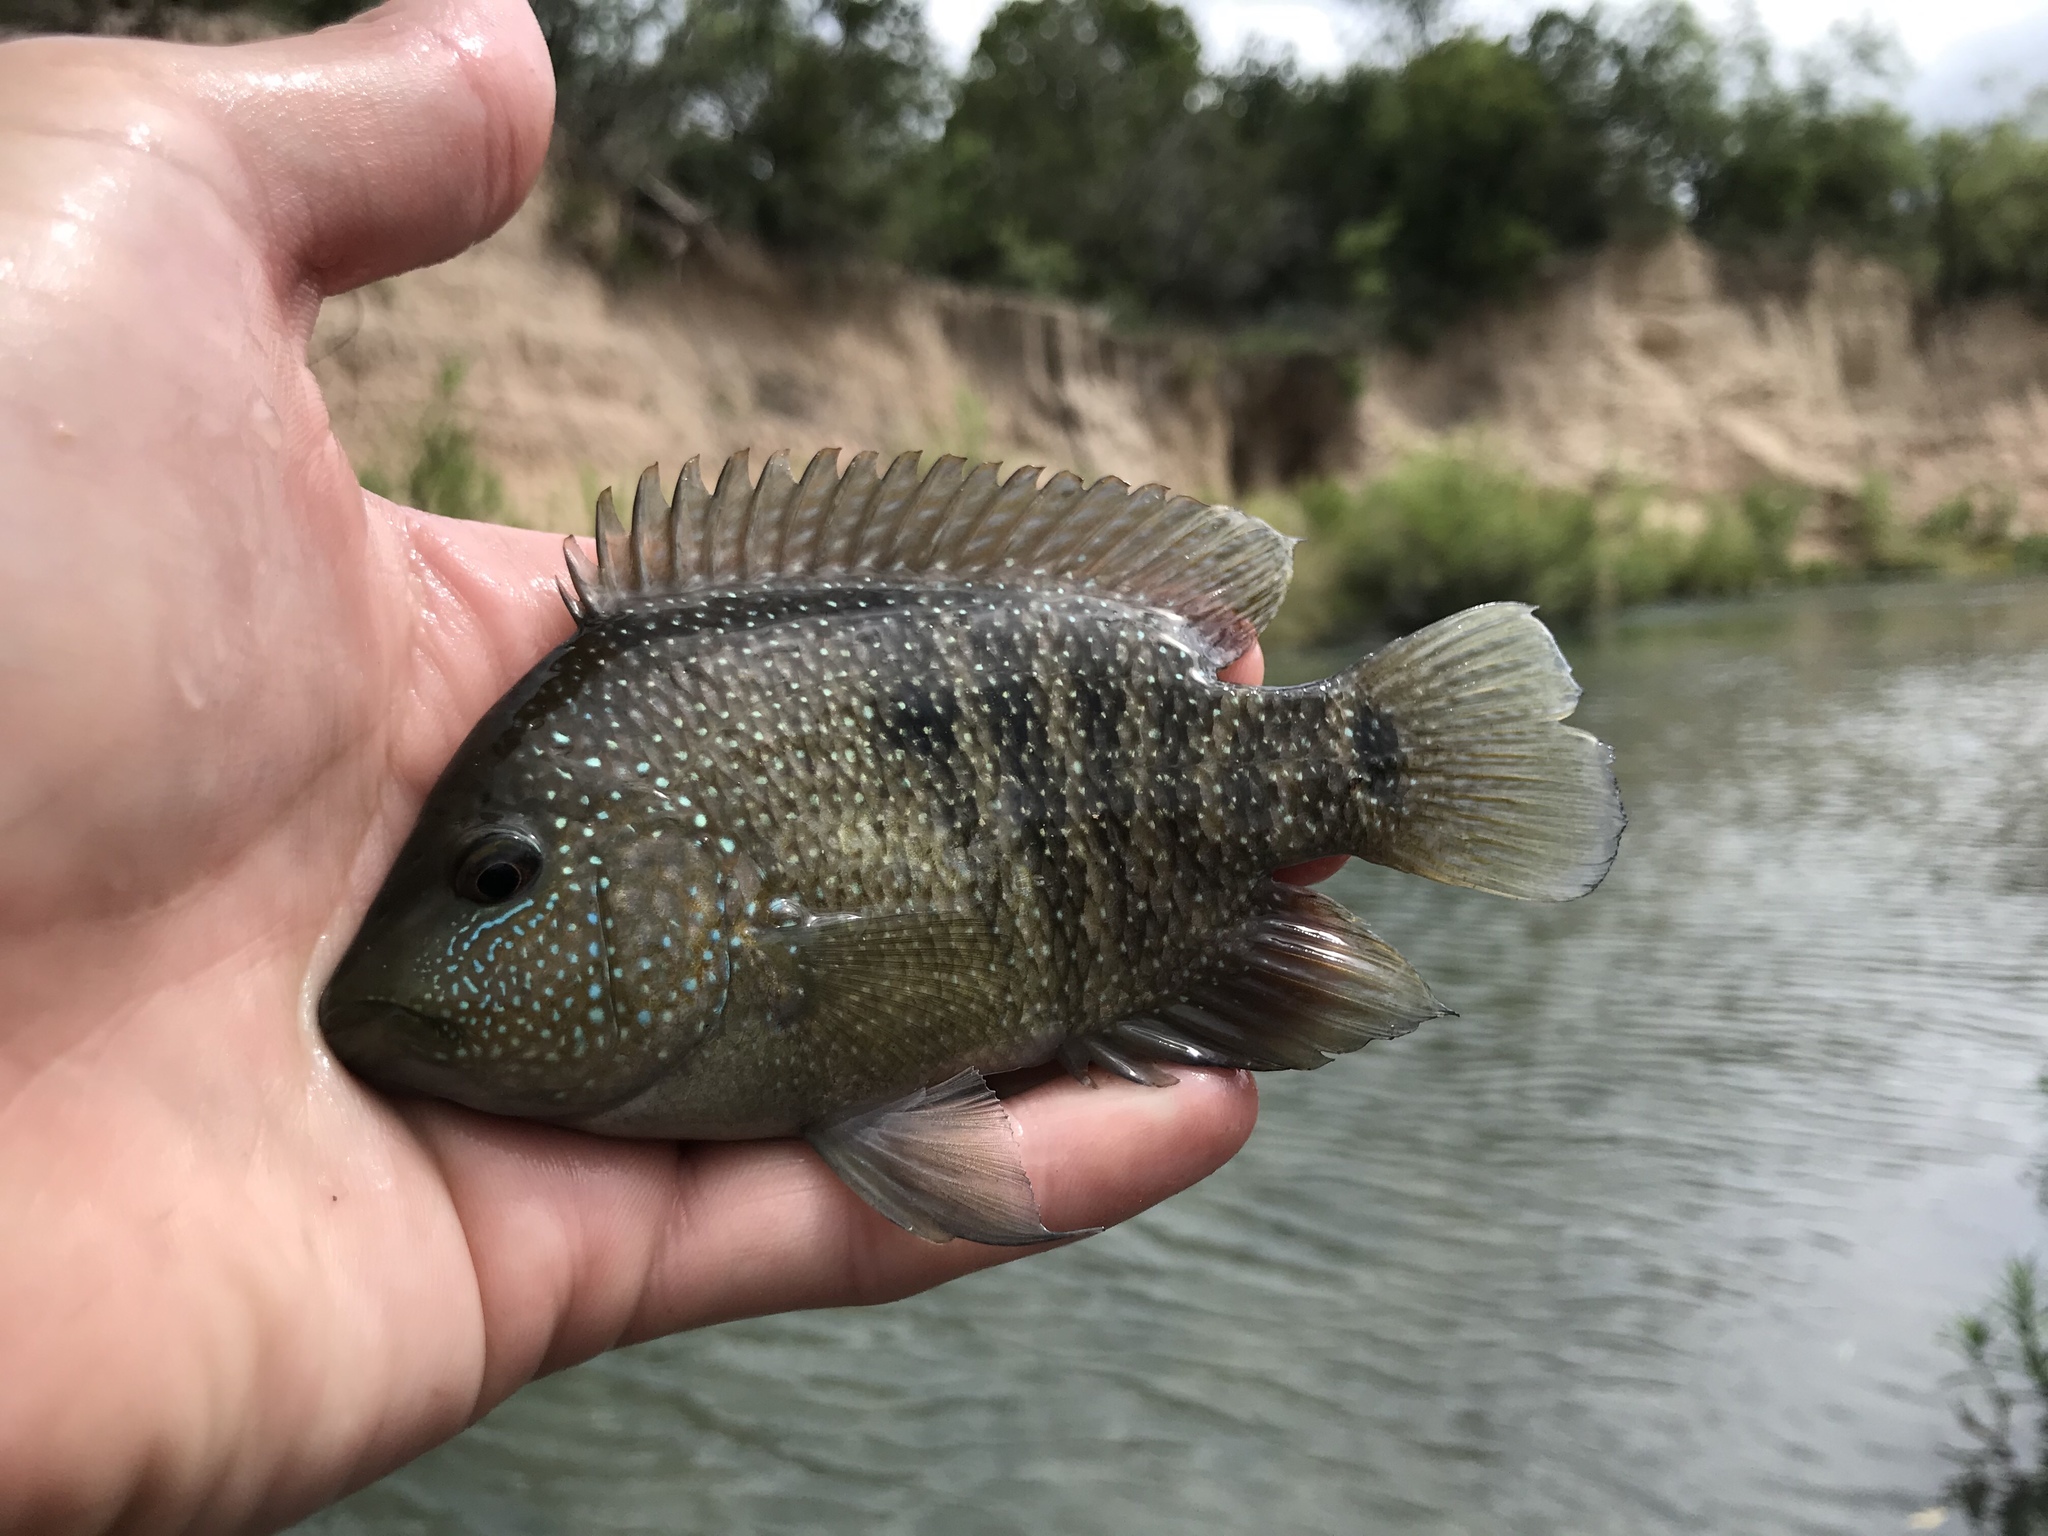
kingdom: Animalia
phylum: Chordata
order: Perciformes
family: Cichlidae
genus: Herichthys
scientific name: Herichthys cyanoguttatus
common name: Rio grande cichlid
